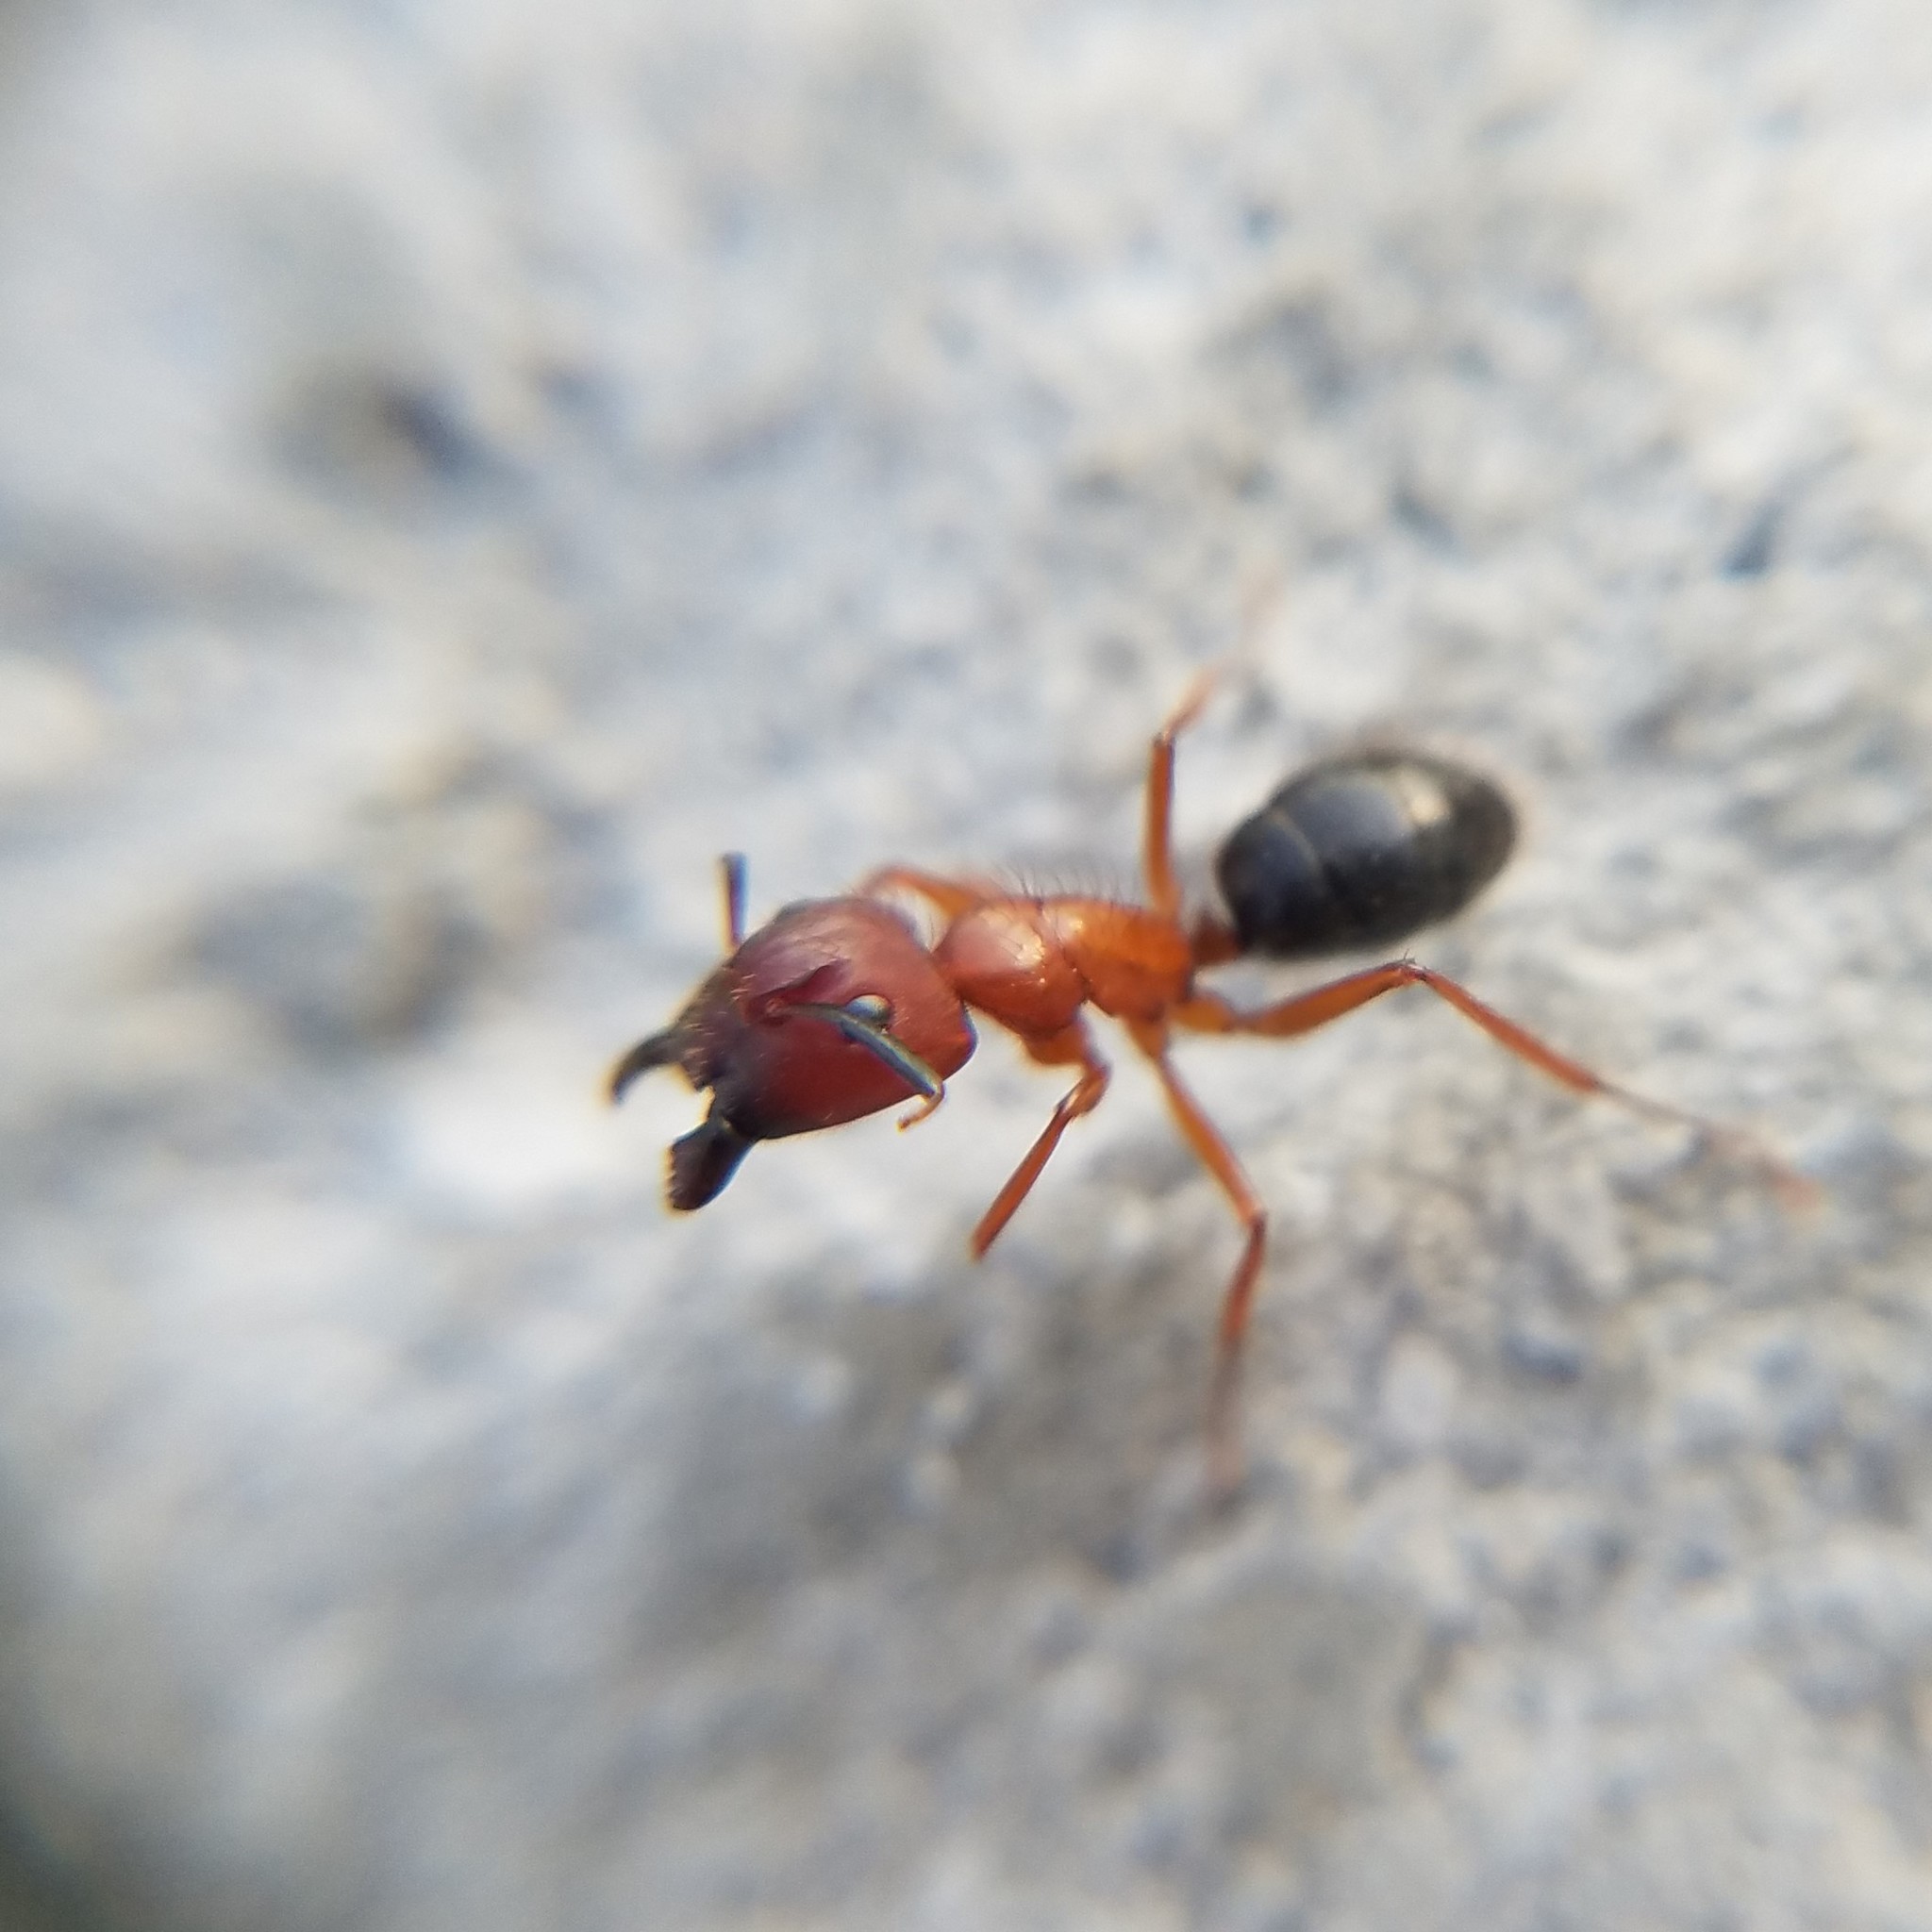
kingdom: Animalia
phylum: Arthropoda
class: Insecta
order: Hymenoptera
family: Formicidae
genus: Camponotus
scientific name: Camponotus floridanus
